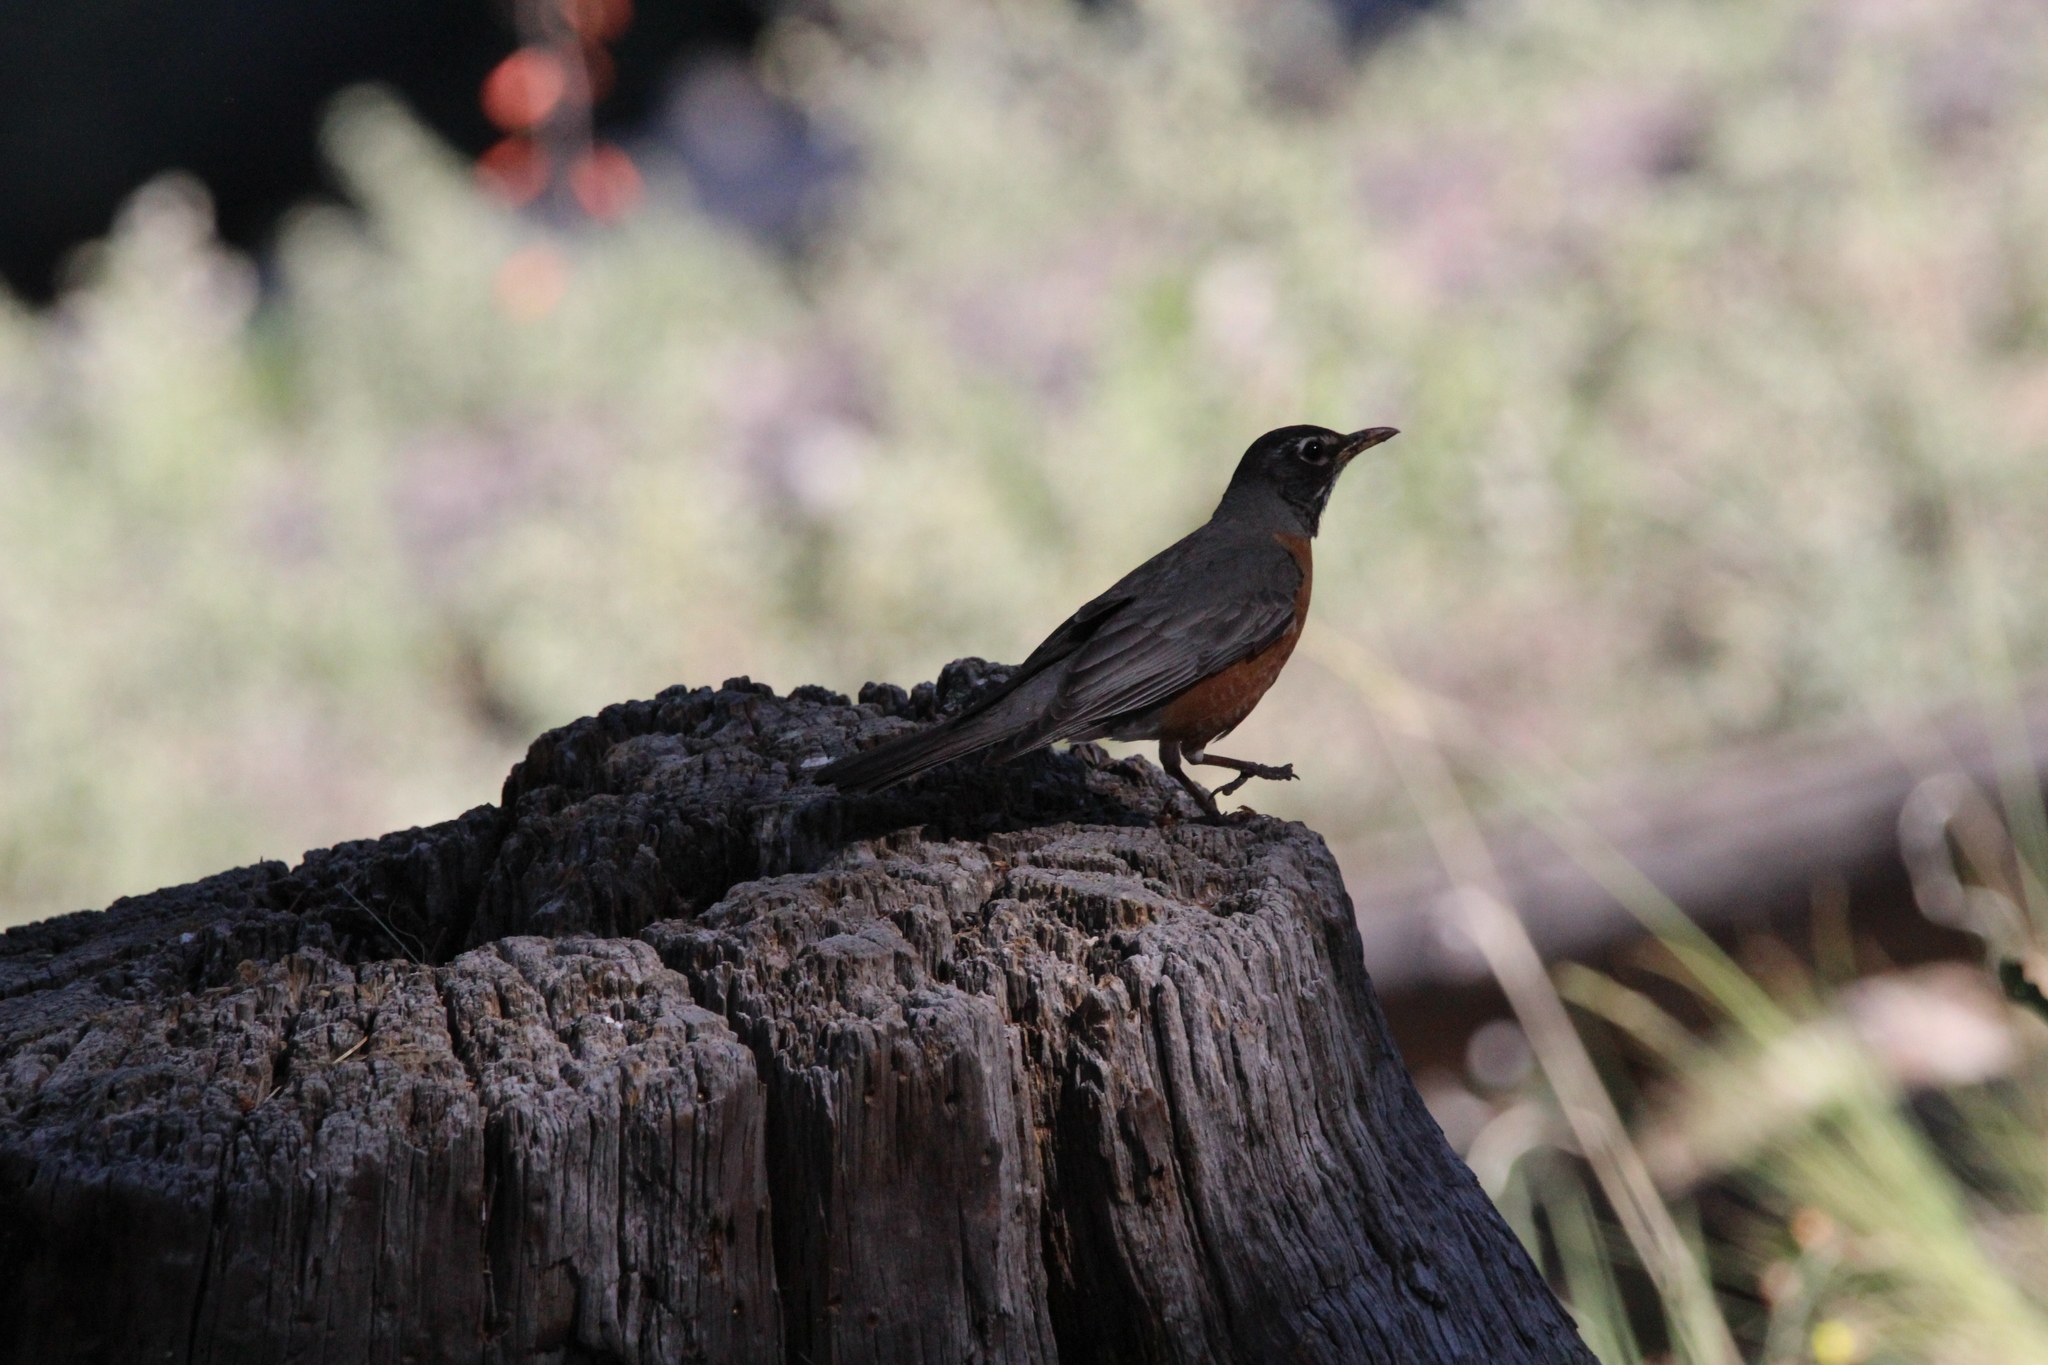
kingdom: Animalia
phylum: Chordata
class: Aves
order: Passeriformes
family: Turdidae
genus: Turdus
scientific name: Turdus migratorius
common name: American robin
